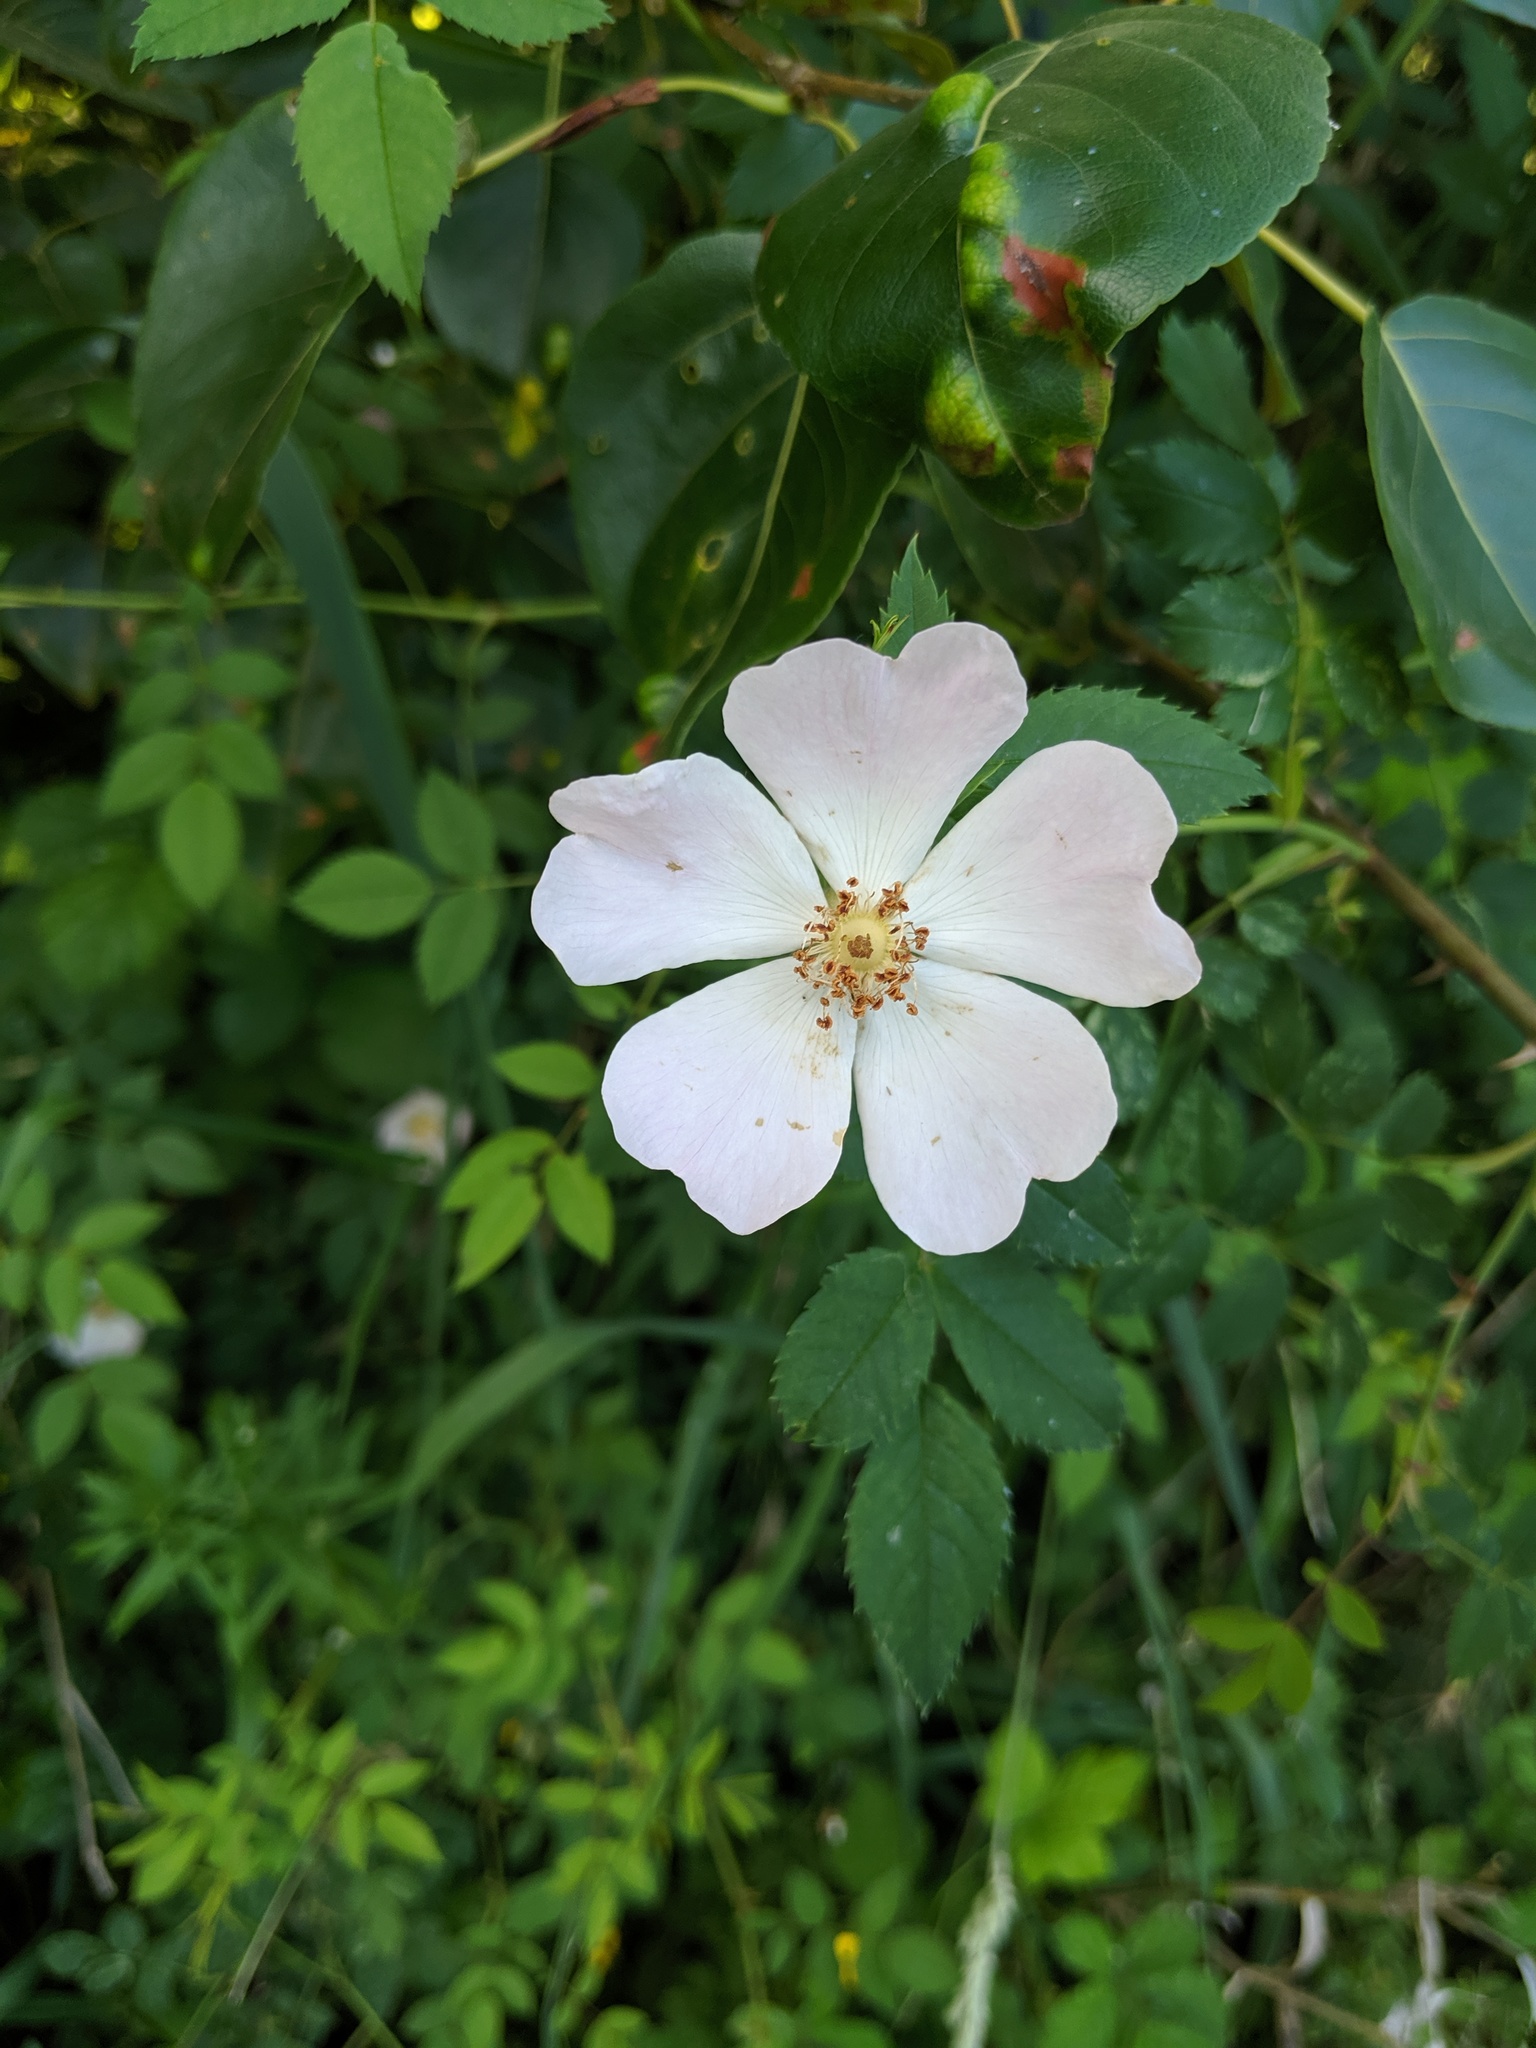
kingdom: Plantae
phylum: Tracheophyta
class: Magnoliopsida
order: Rosales
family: Rosaceae
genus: Rosa
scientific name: Rosa canina
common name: Dog rose
